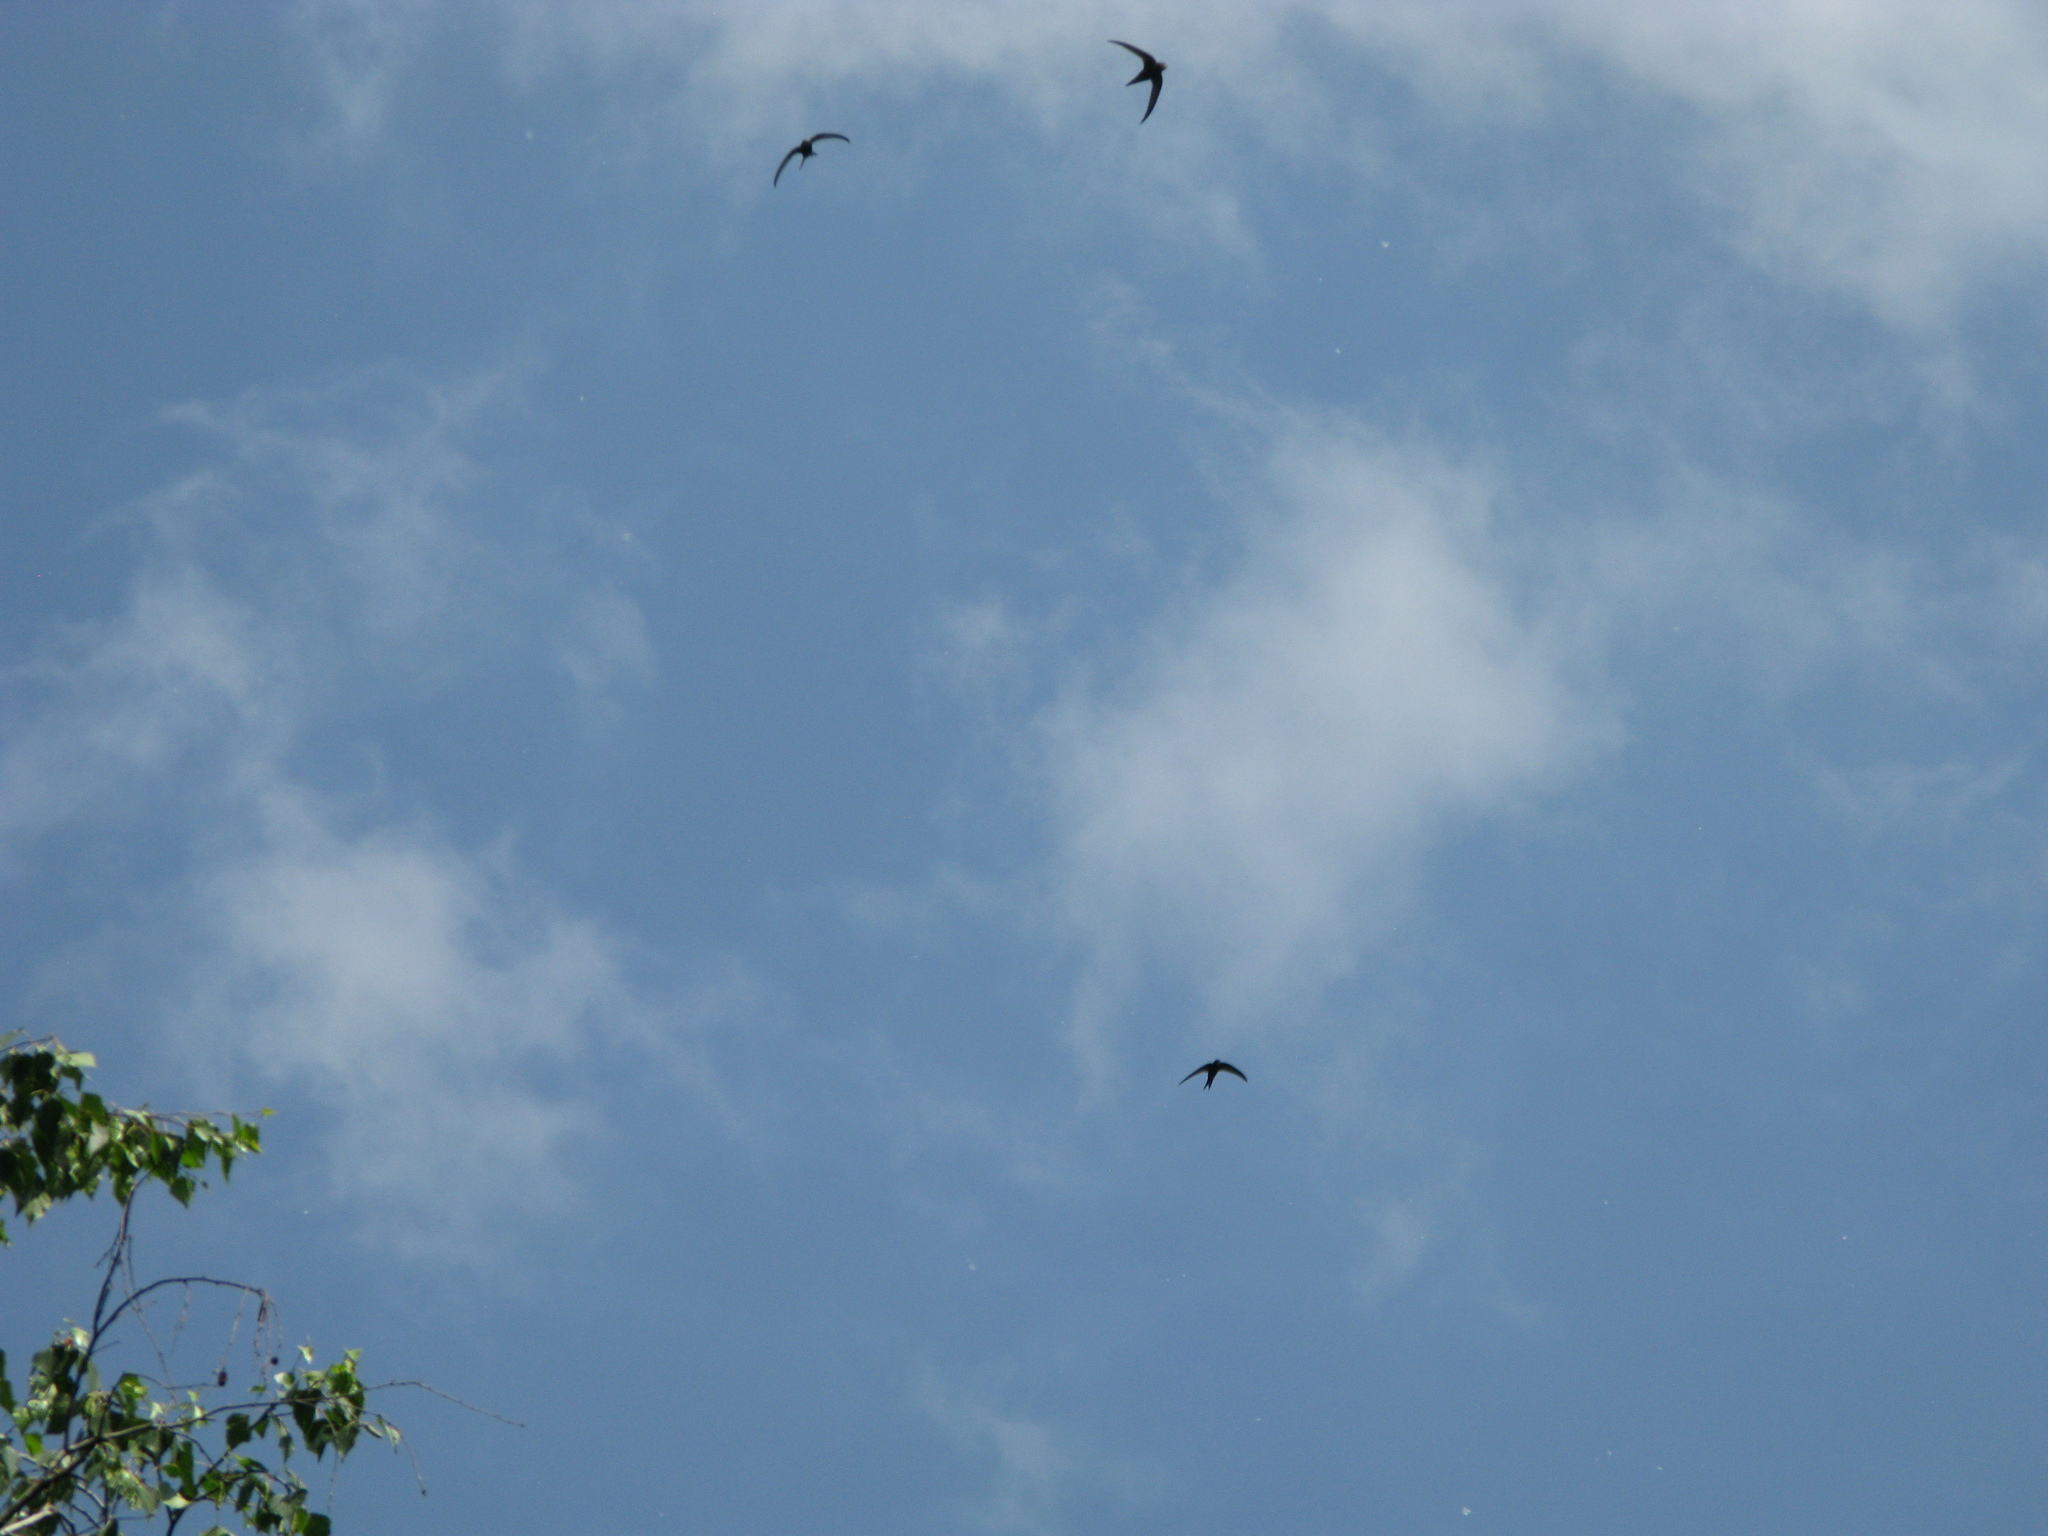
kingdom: Animalia
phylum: Chordata
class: Aves
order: Apodiformes
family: Apodidae
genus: Apus
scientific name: Apus apus
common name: Common swift
